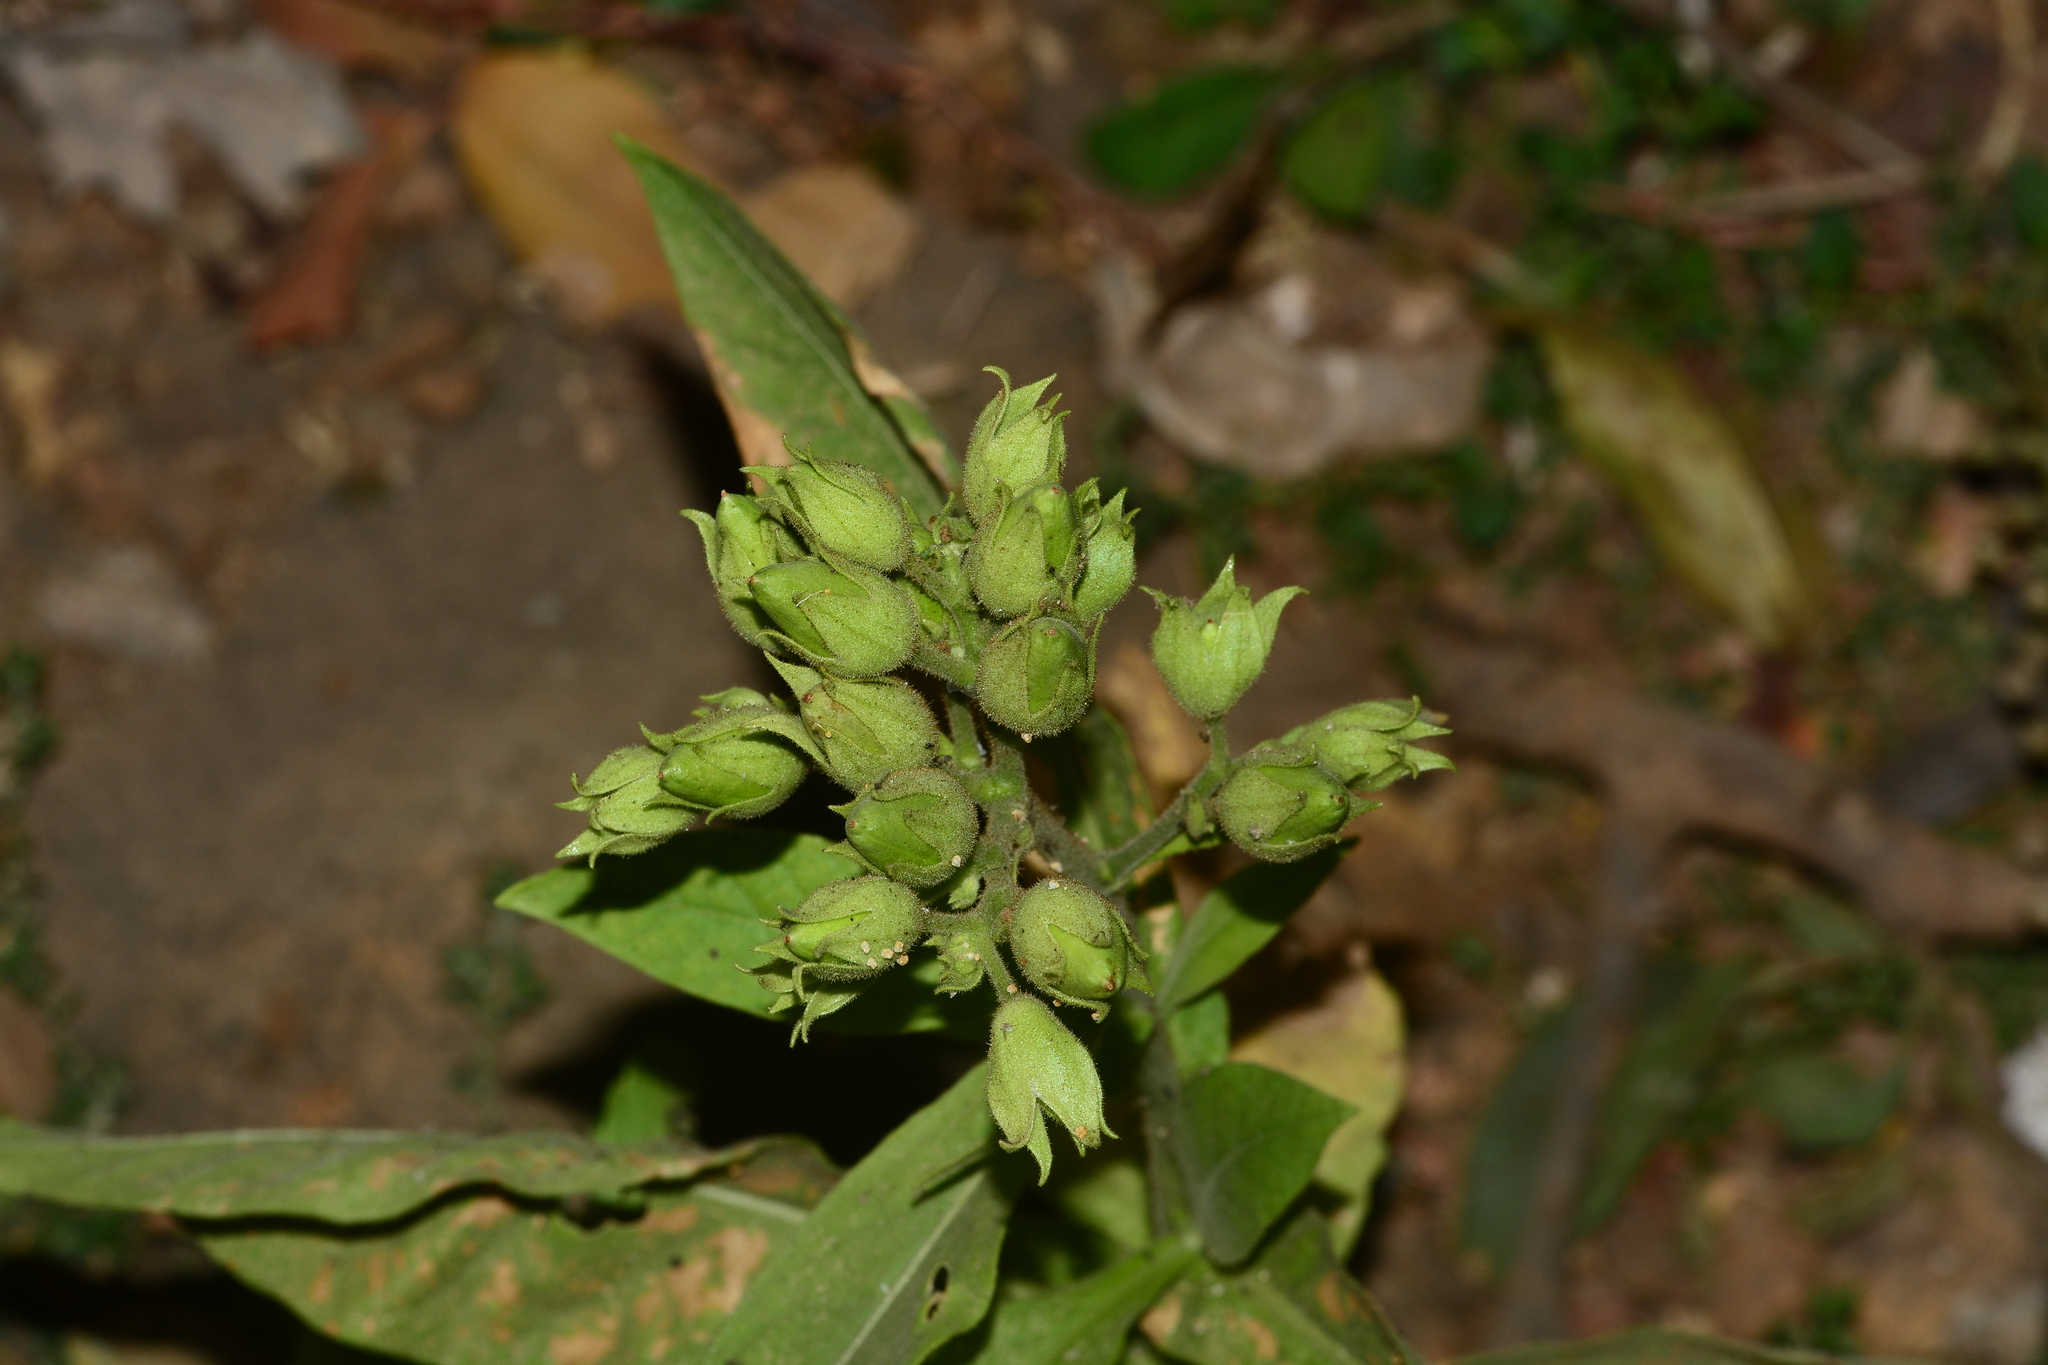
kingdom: Plantae
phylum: Tracheophyta
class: Magnoliopsida
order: Solanales
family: Solanaceae
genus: Nicotiana
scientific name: Nicotiana tabacum
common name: Tobacco
